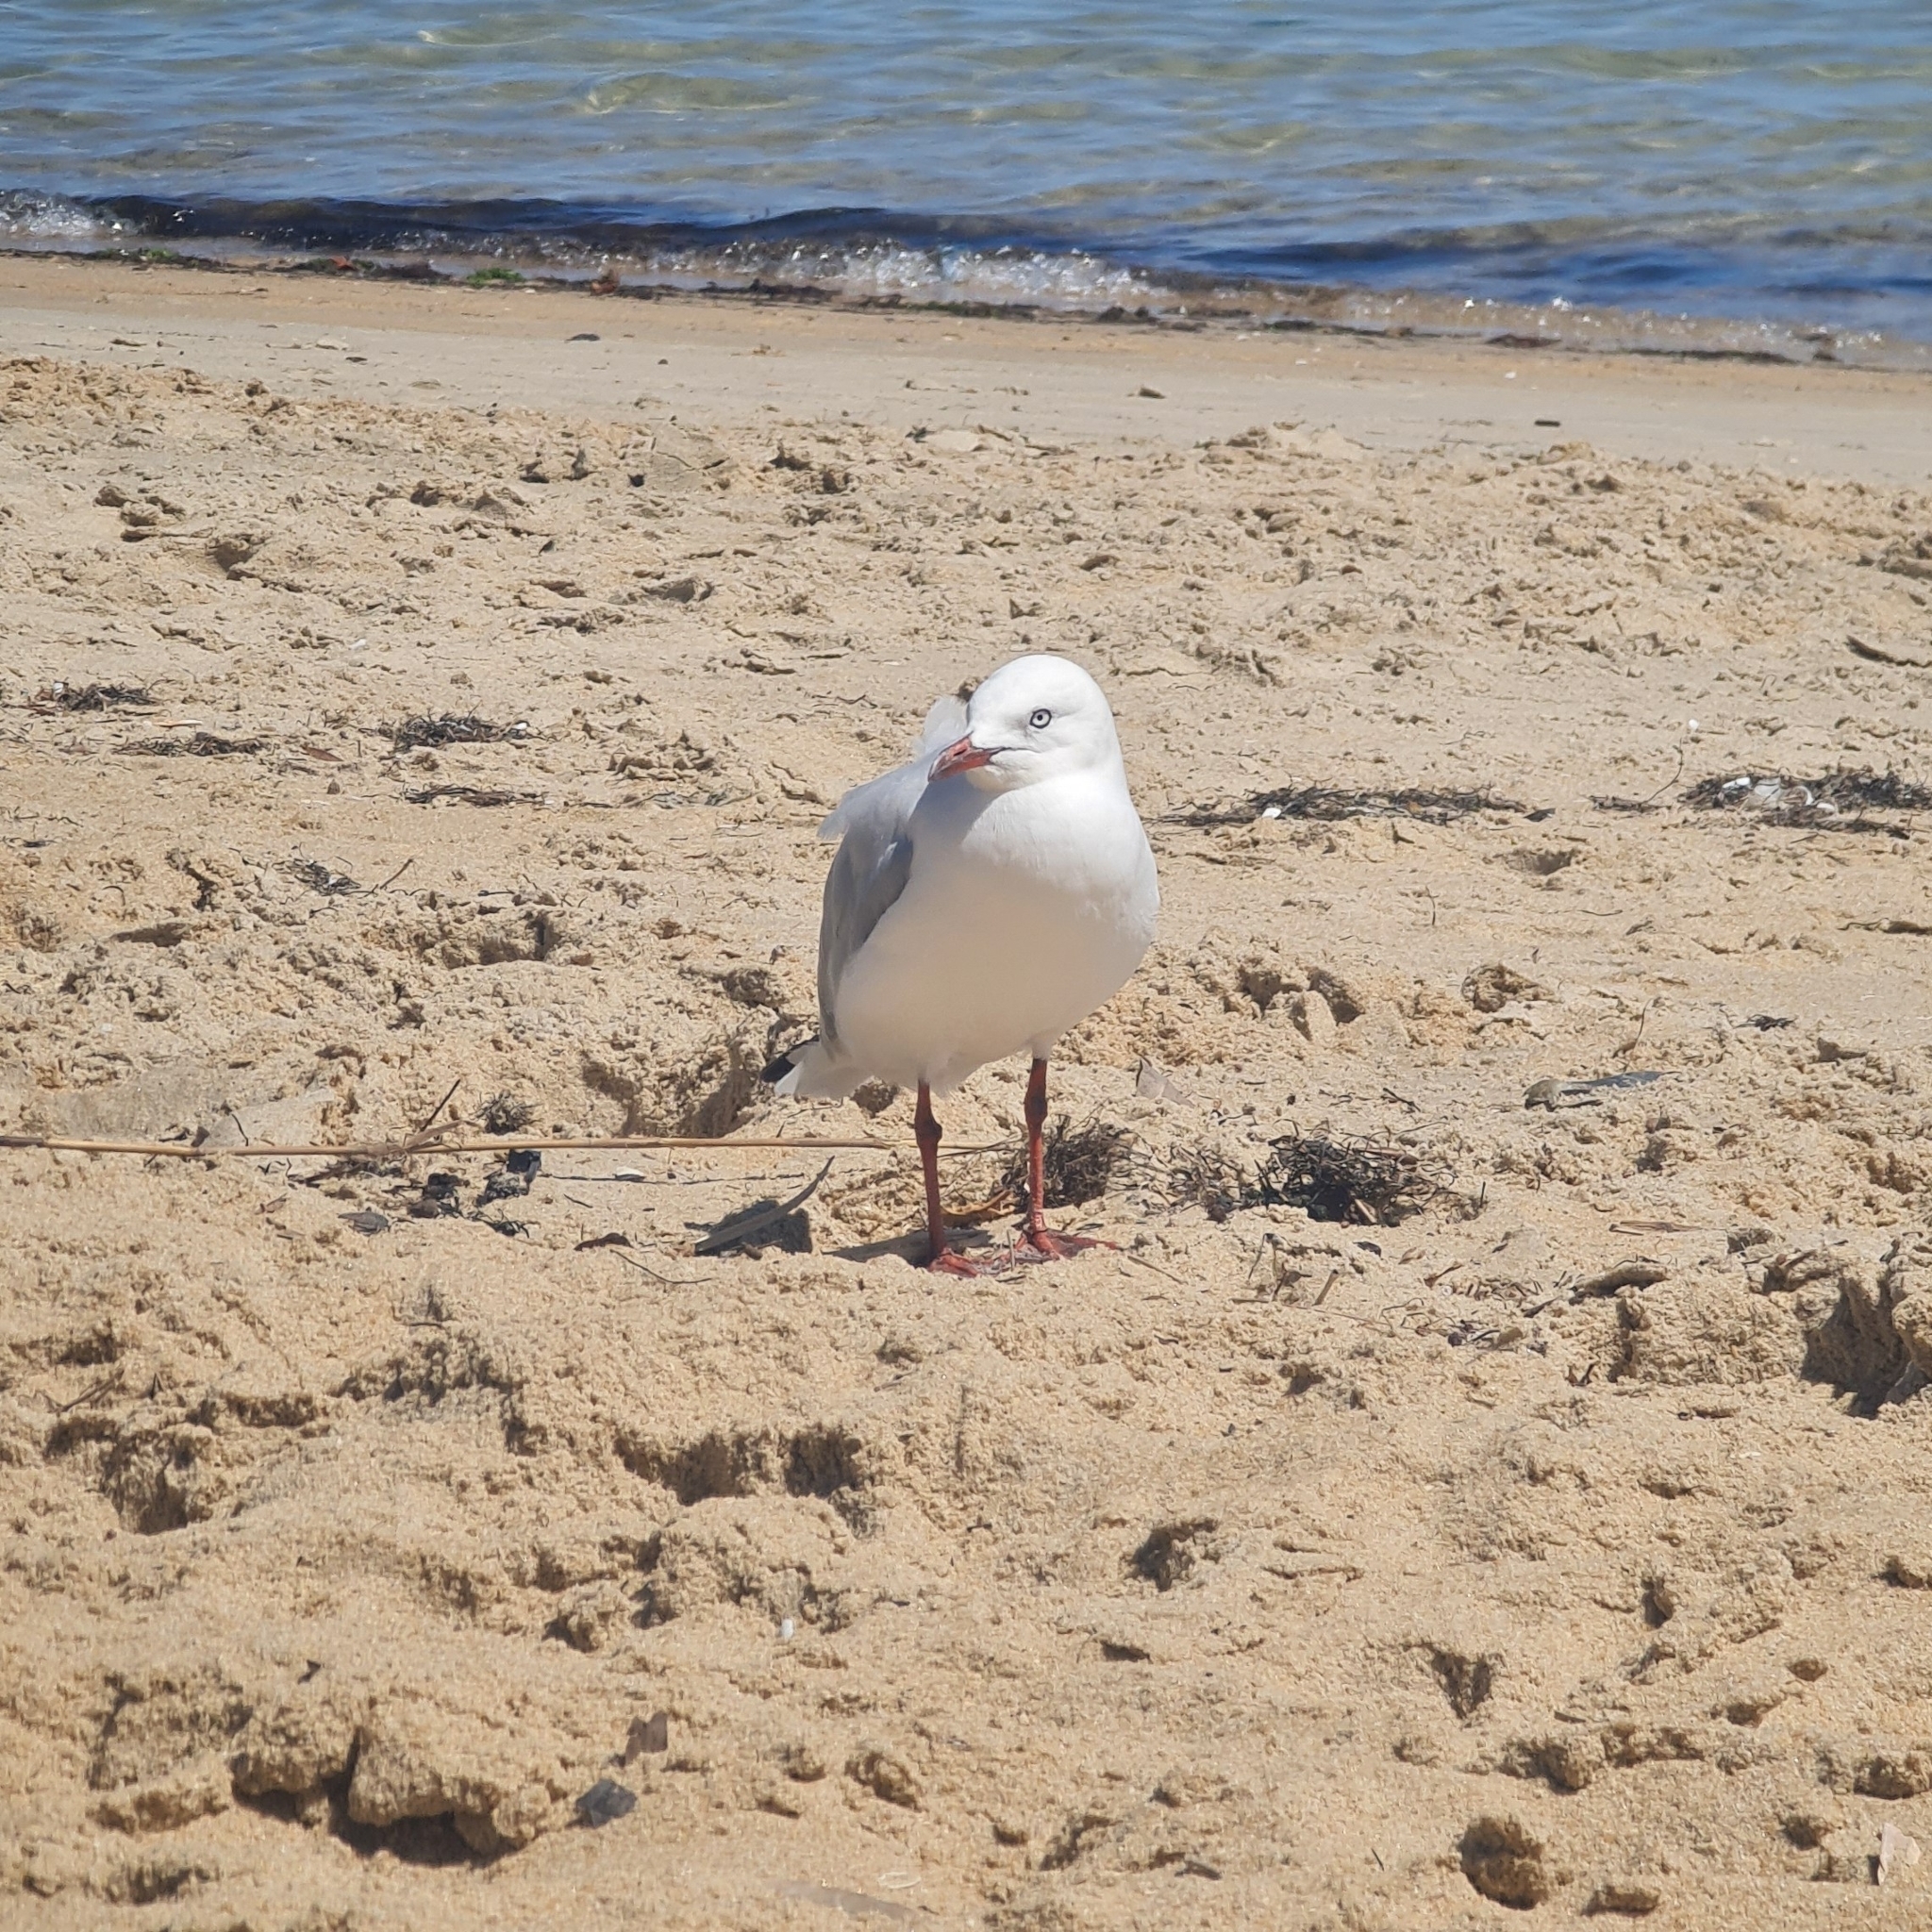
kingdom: Animalia
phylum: Chordata
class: Aves
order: Charadriiformes
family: Laridae
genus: Chroicocephalus
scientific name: Chroicocephalus novaehollandiae
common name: Silver gull
